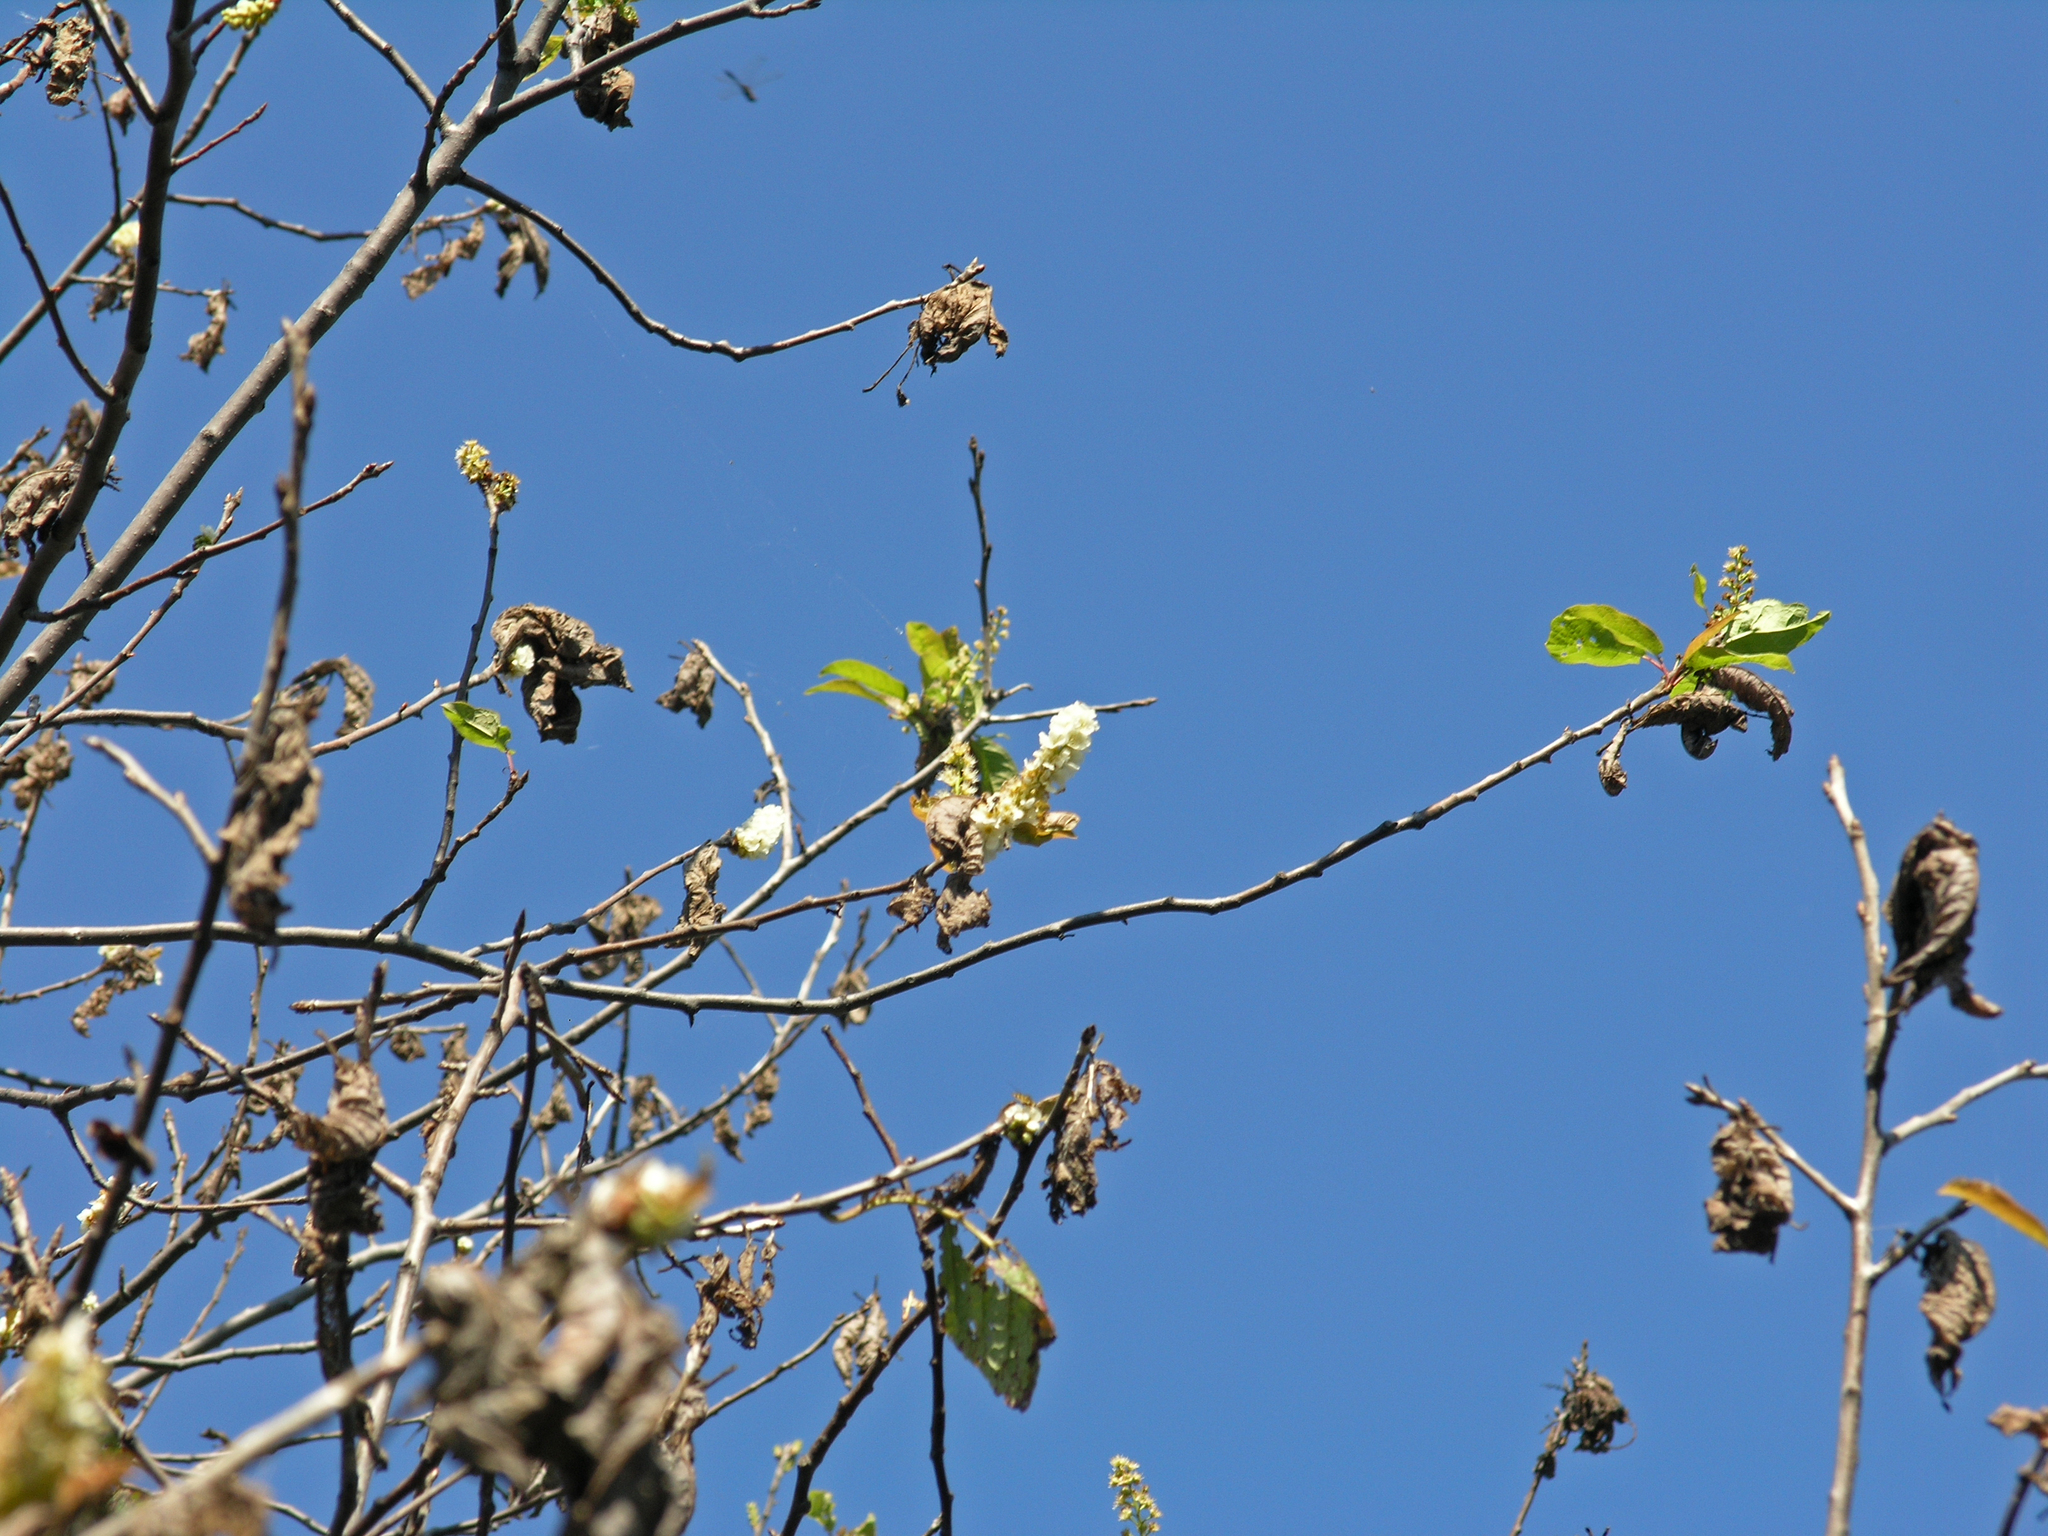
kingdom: Plantae
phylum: Tracheophyta
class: Magnoliopsida
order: Rosales
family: Rosaceae
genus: Prunus
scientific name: Prunus padus
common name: Bird cherry
